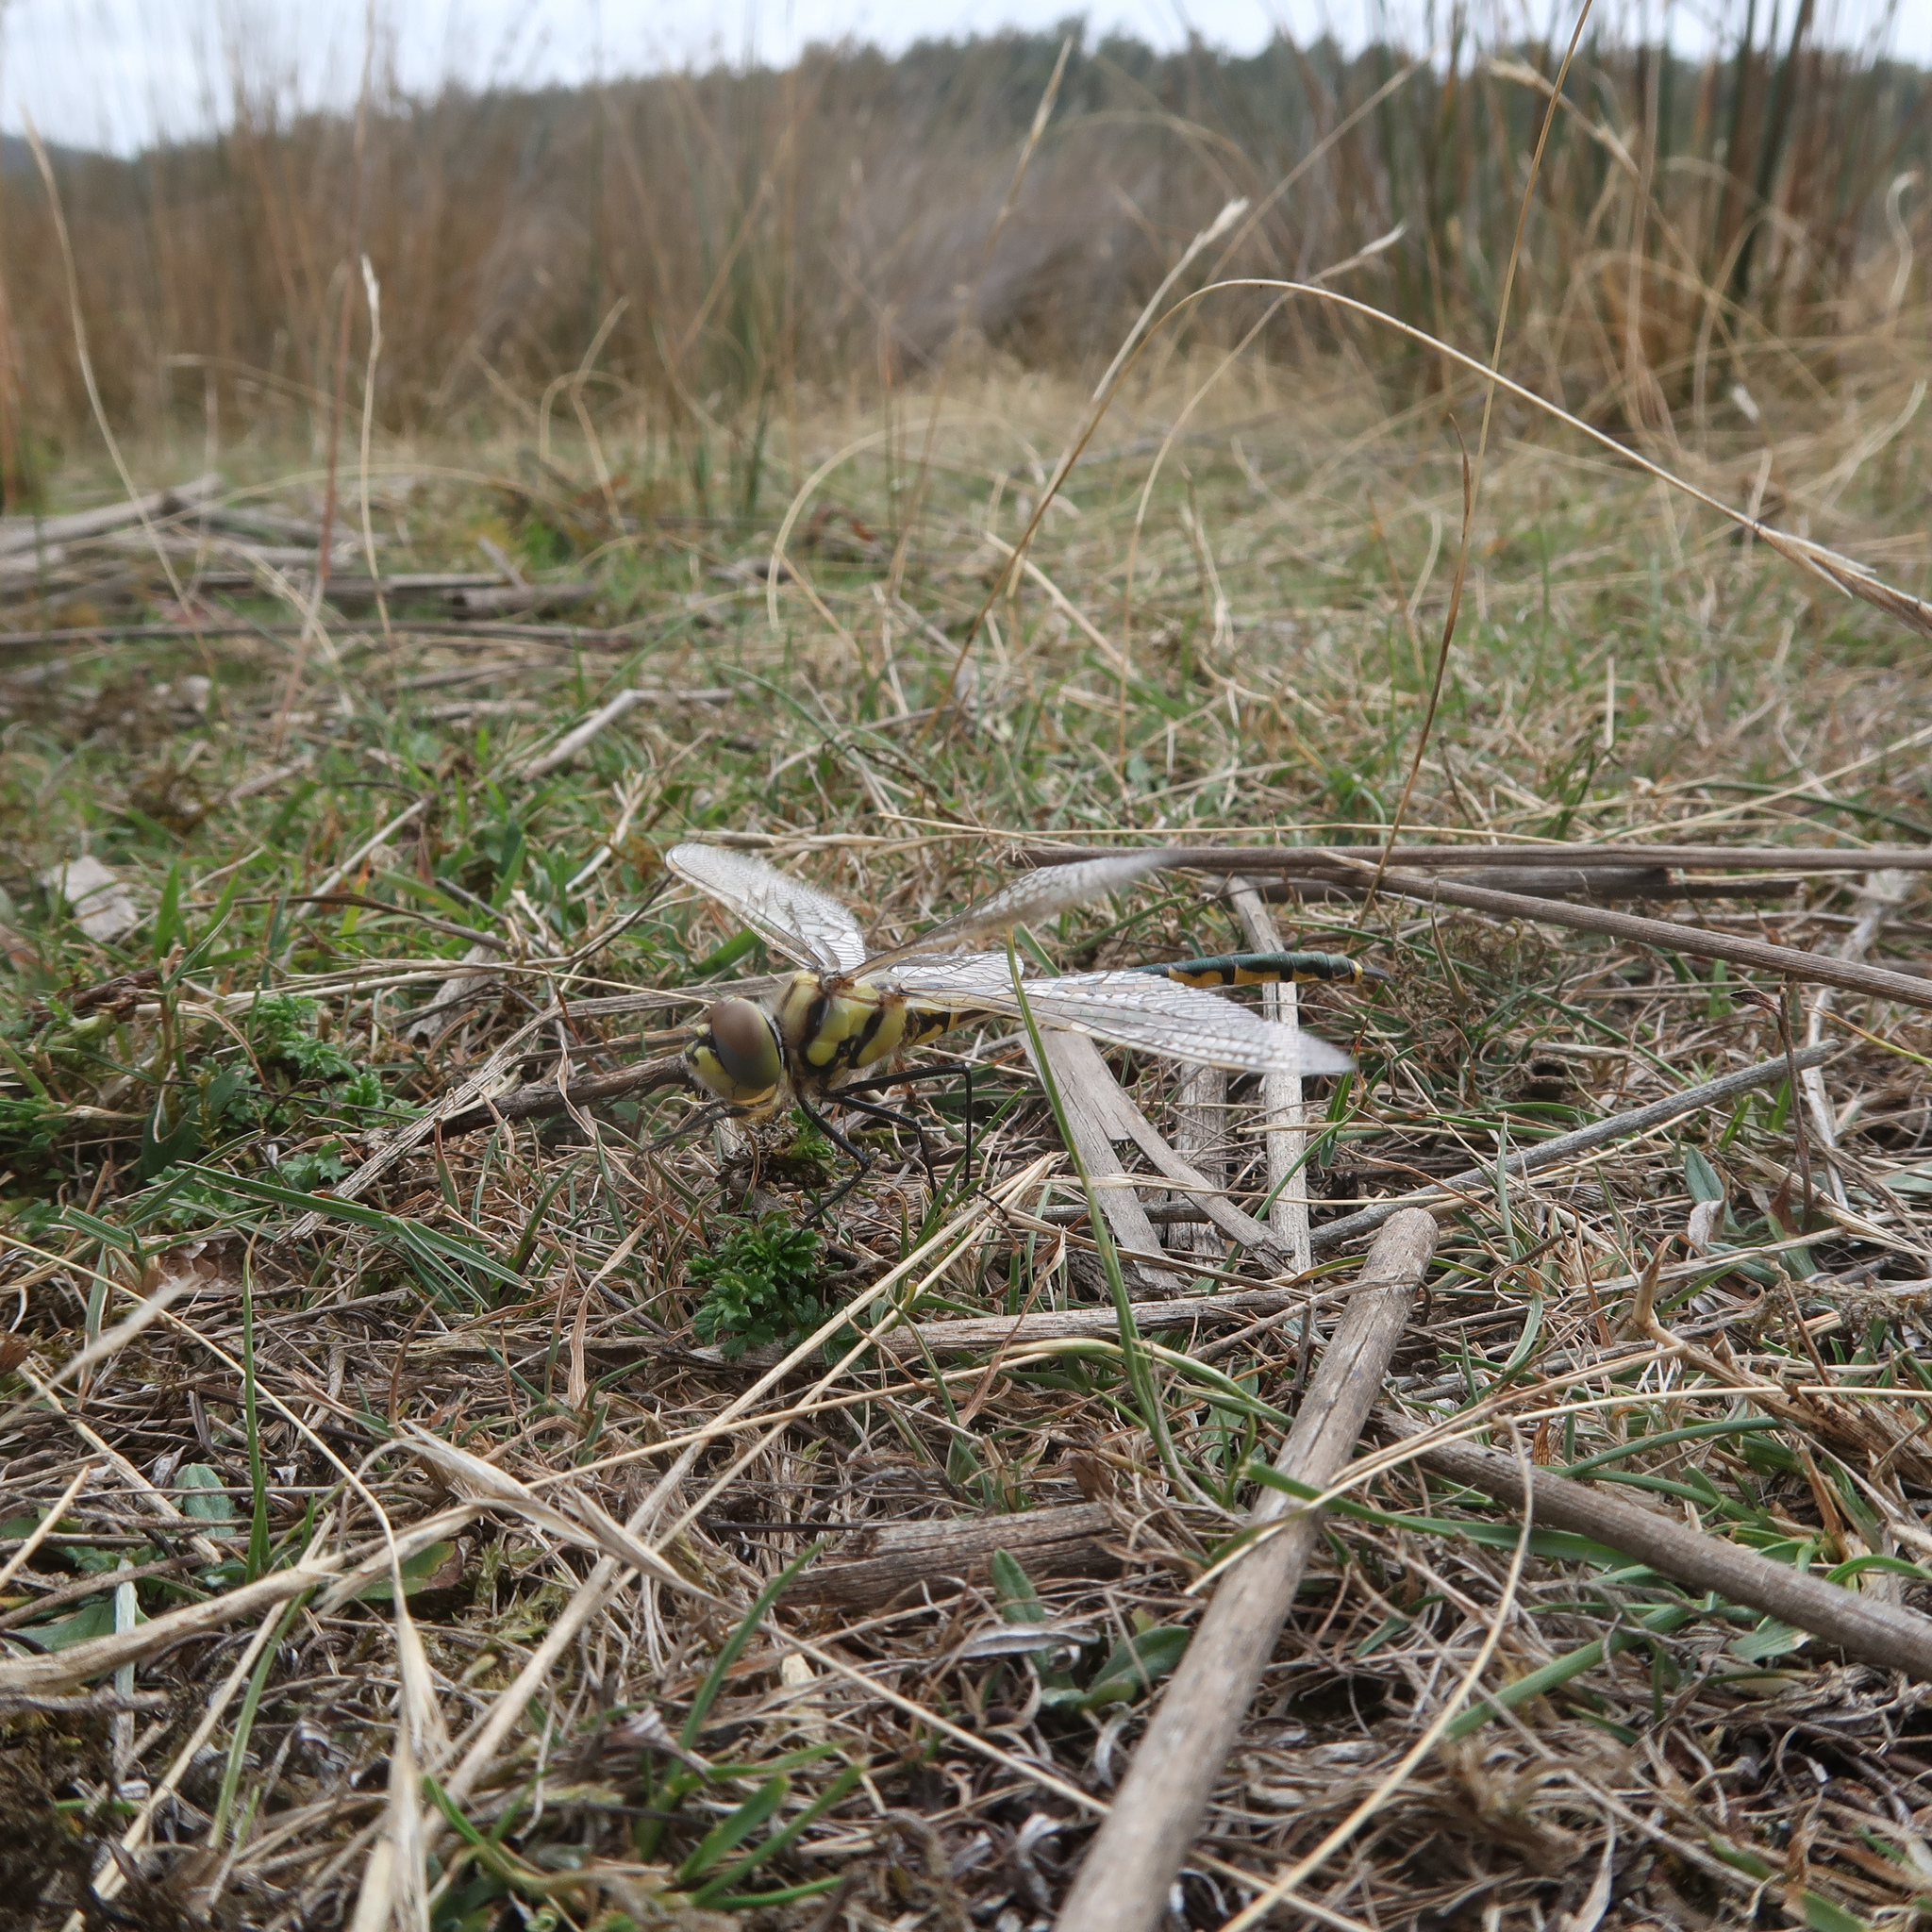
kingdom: Animalia
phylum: Arthropoda
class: Insecta
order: Odonata
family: Corduliidae
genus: Hemicordulia
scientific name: Hemicordulia tau
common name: Tau emerald
